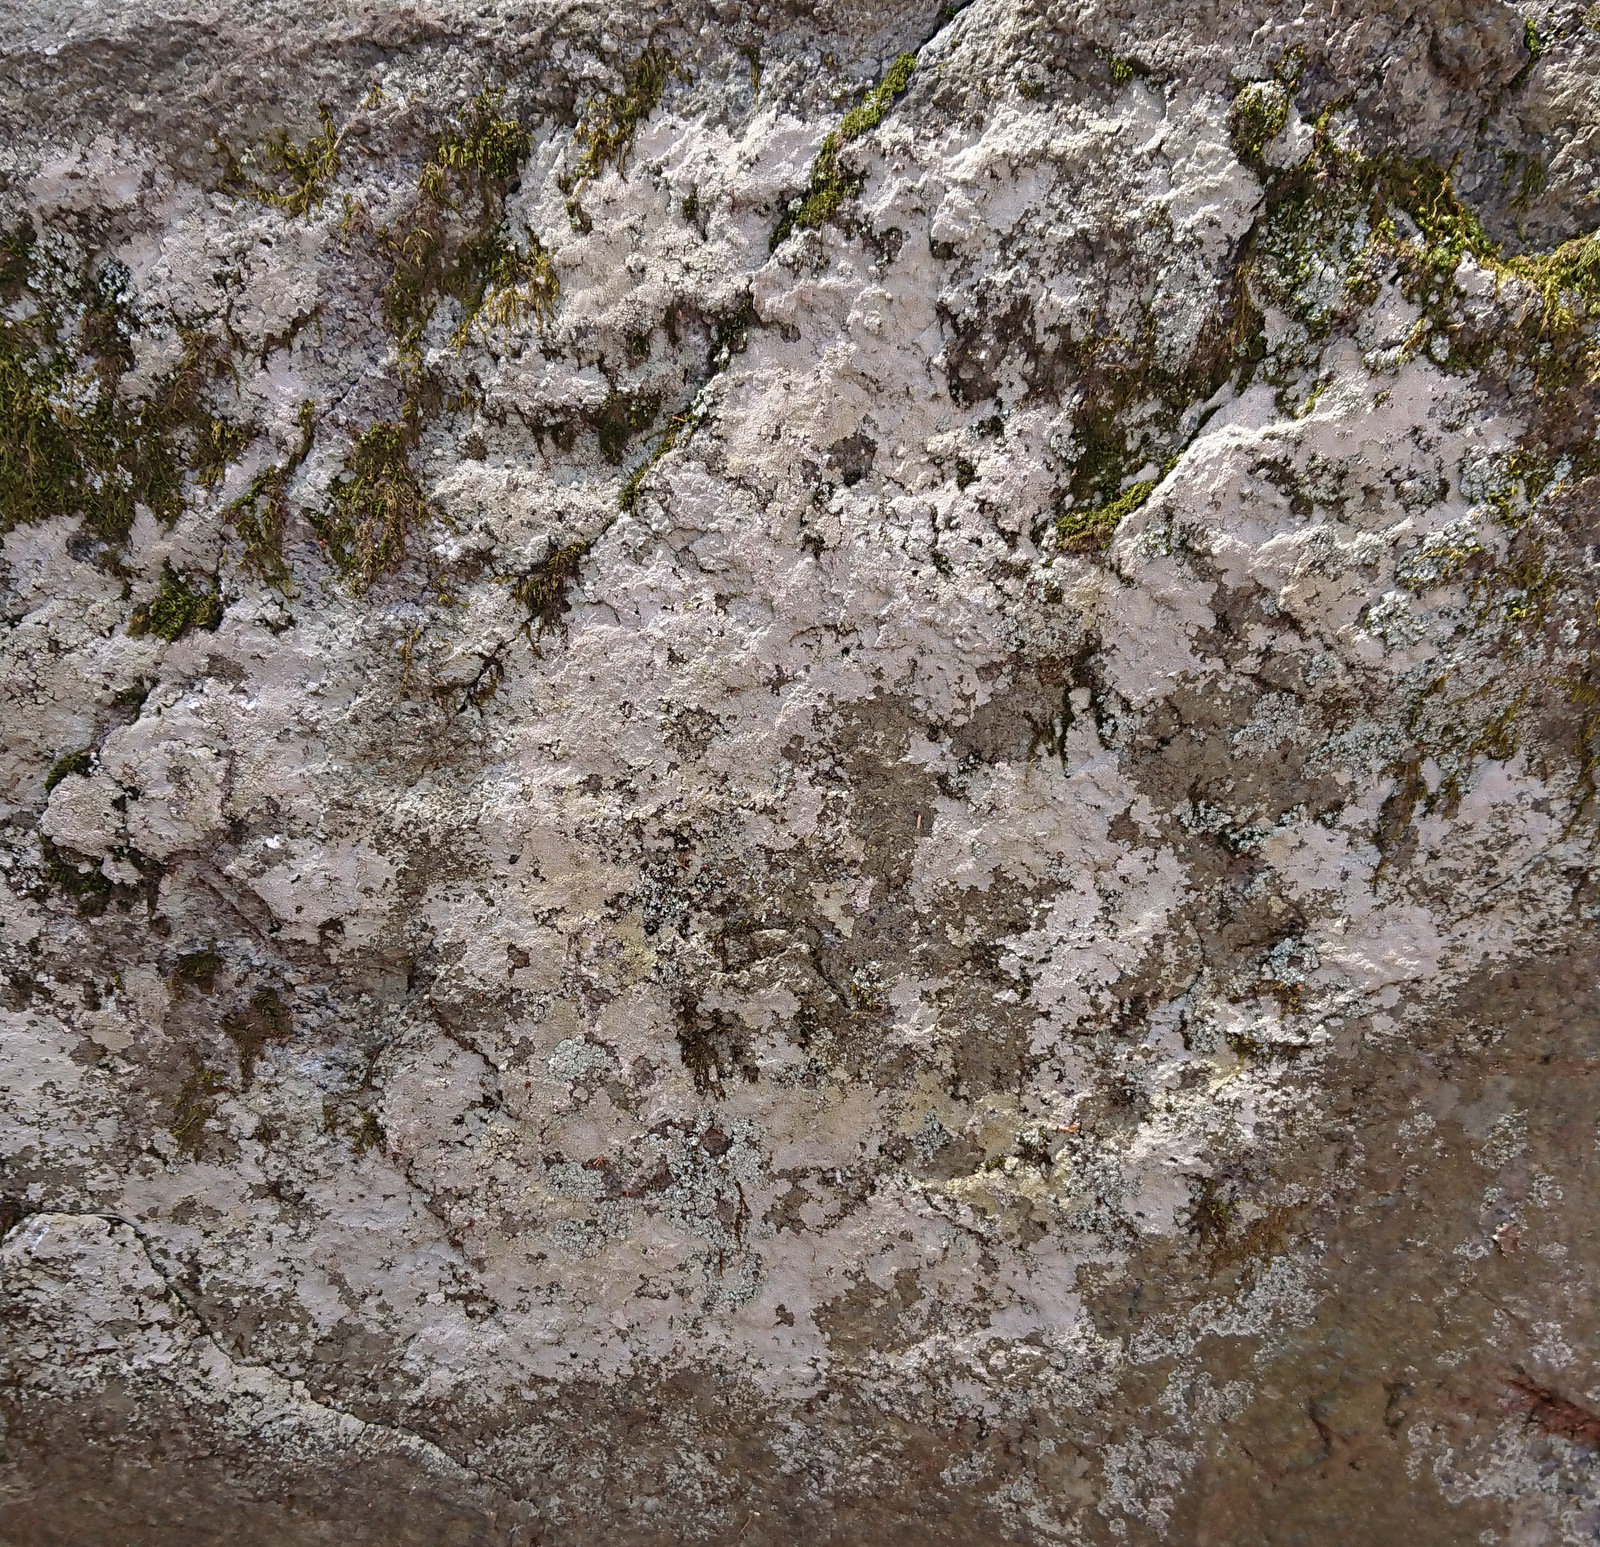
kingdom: Fungi
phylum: Ascomycota
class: Lecanoromycetes
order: Baeomycetales
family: Trapeliaceae
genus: Kleopowiella
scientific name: Kleopowiella placodioides
